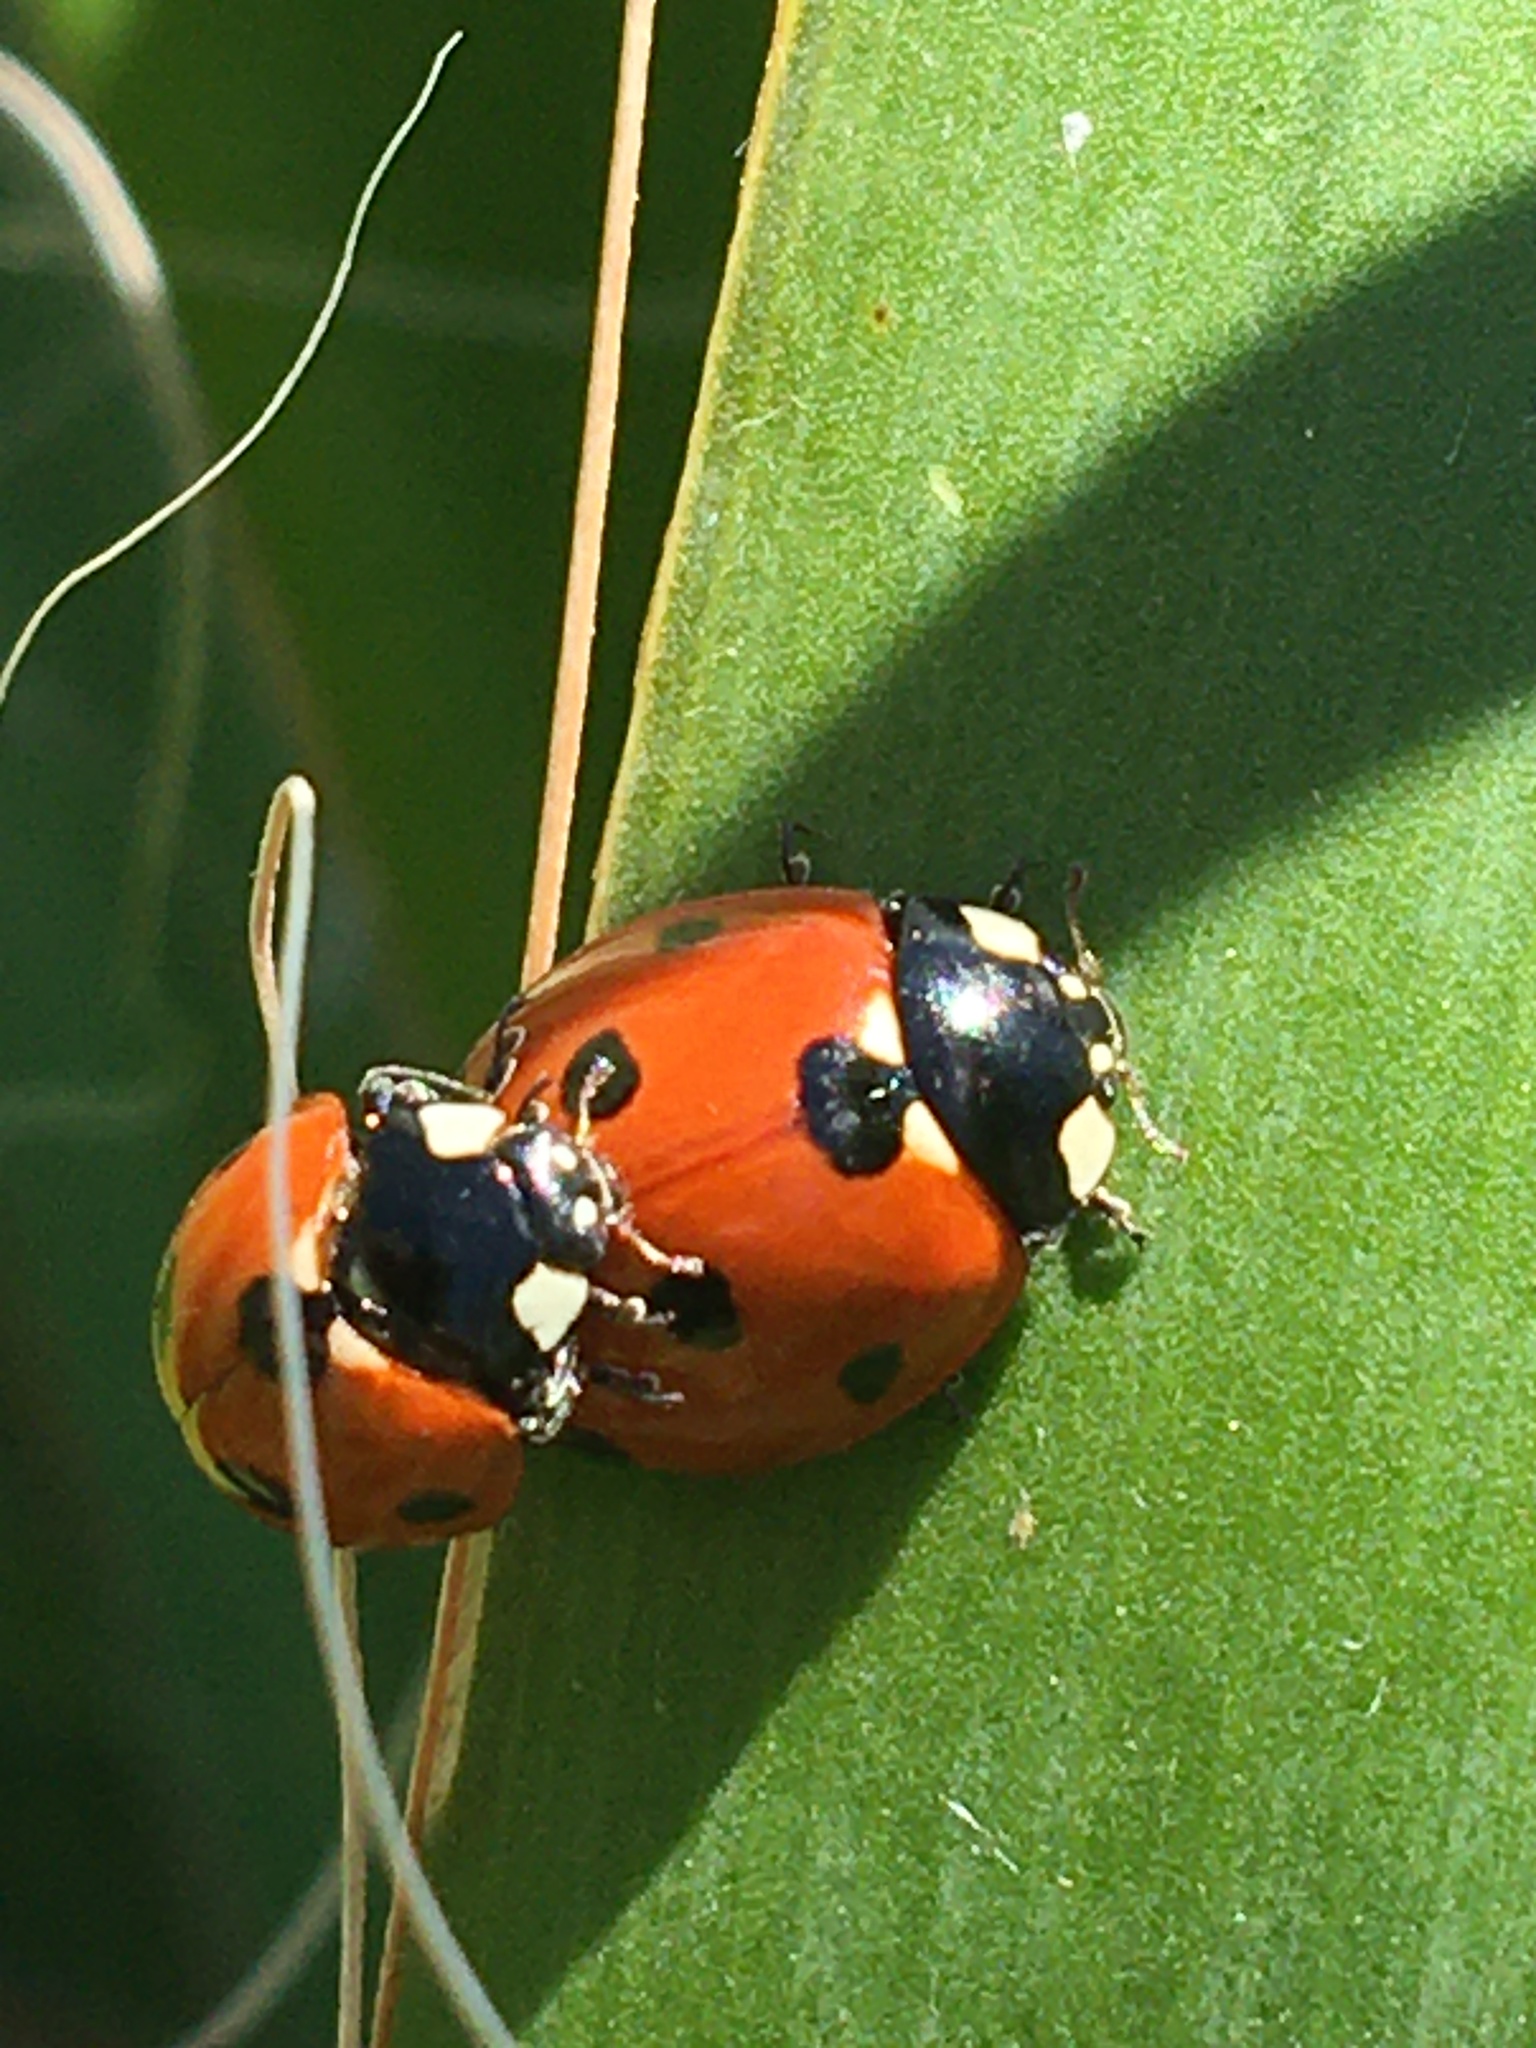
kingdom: Animalia
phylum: Arthropoda
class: Insecta
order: Coleoptera
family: Coccinellidae
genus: Coccinella
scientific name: Coccinella septempunctata
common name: Sevenspotted lady beetle
